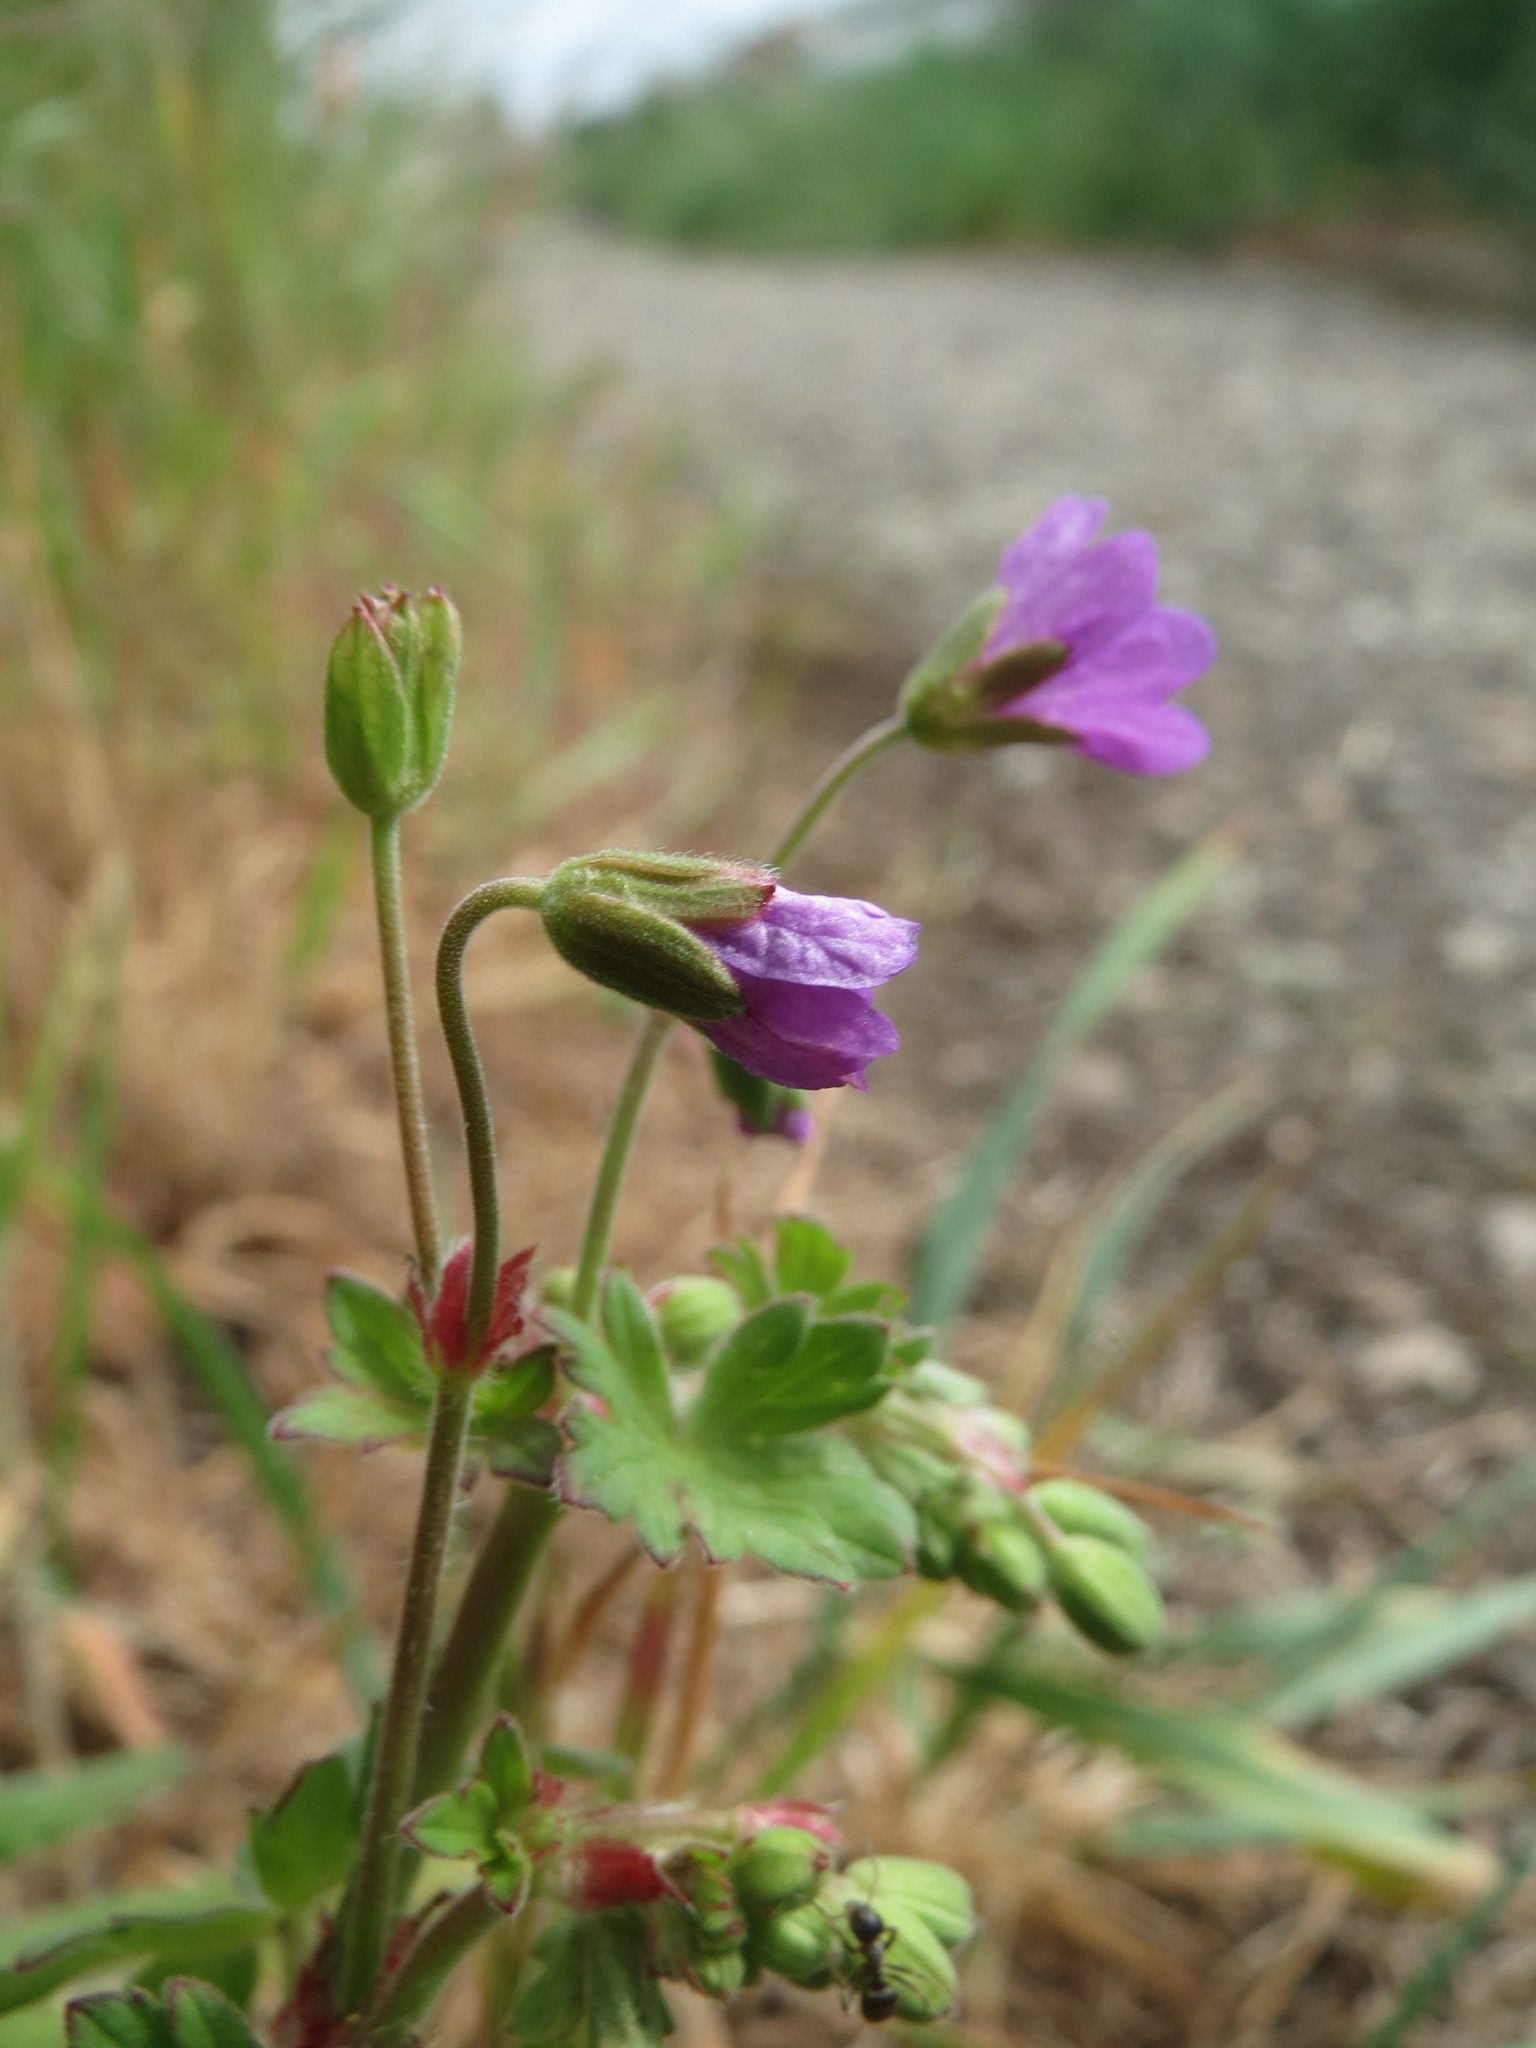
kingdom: Plantae
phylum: Tracheophyta
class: Magnoliopsida
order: Geraniales
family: Geraniaceae
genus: Geranium
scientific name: Geranium pyrenaicum
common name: Hedgerow crane's-bill
